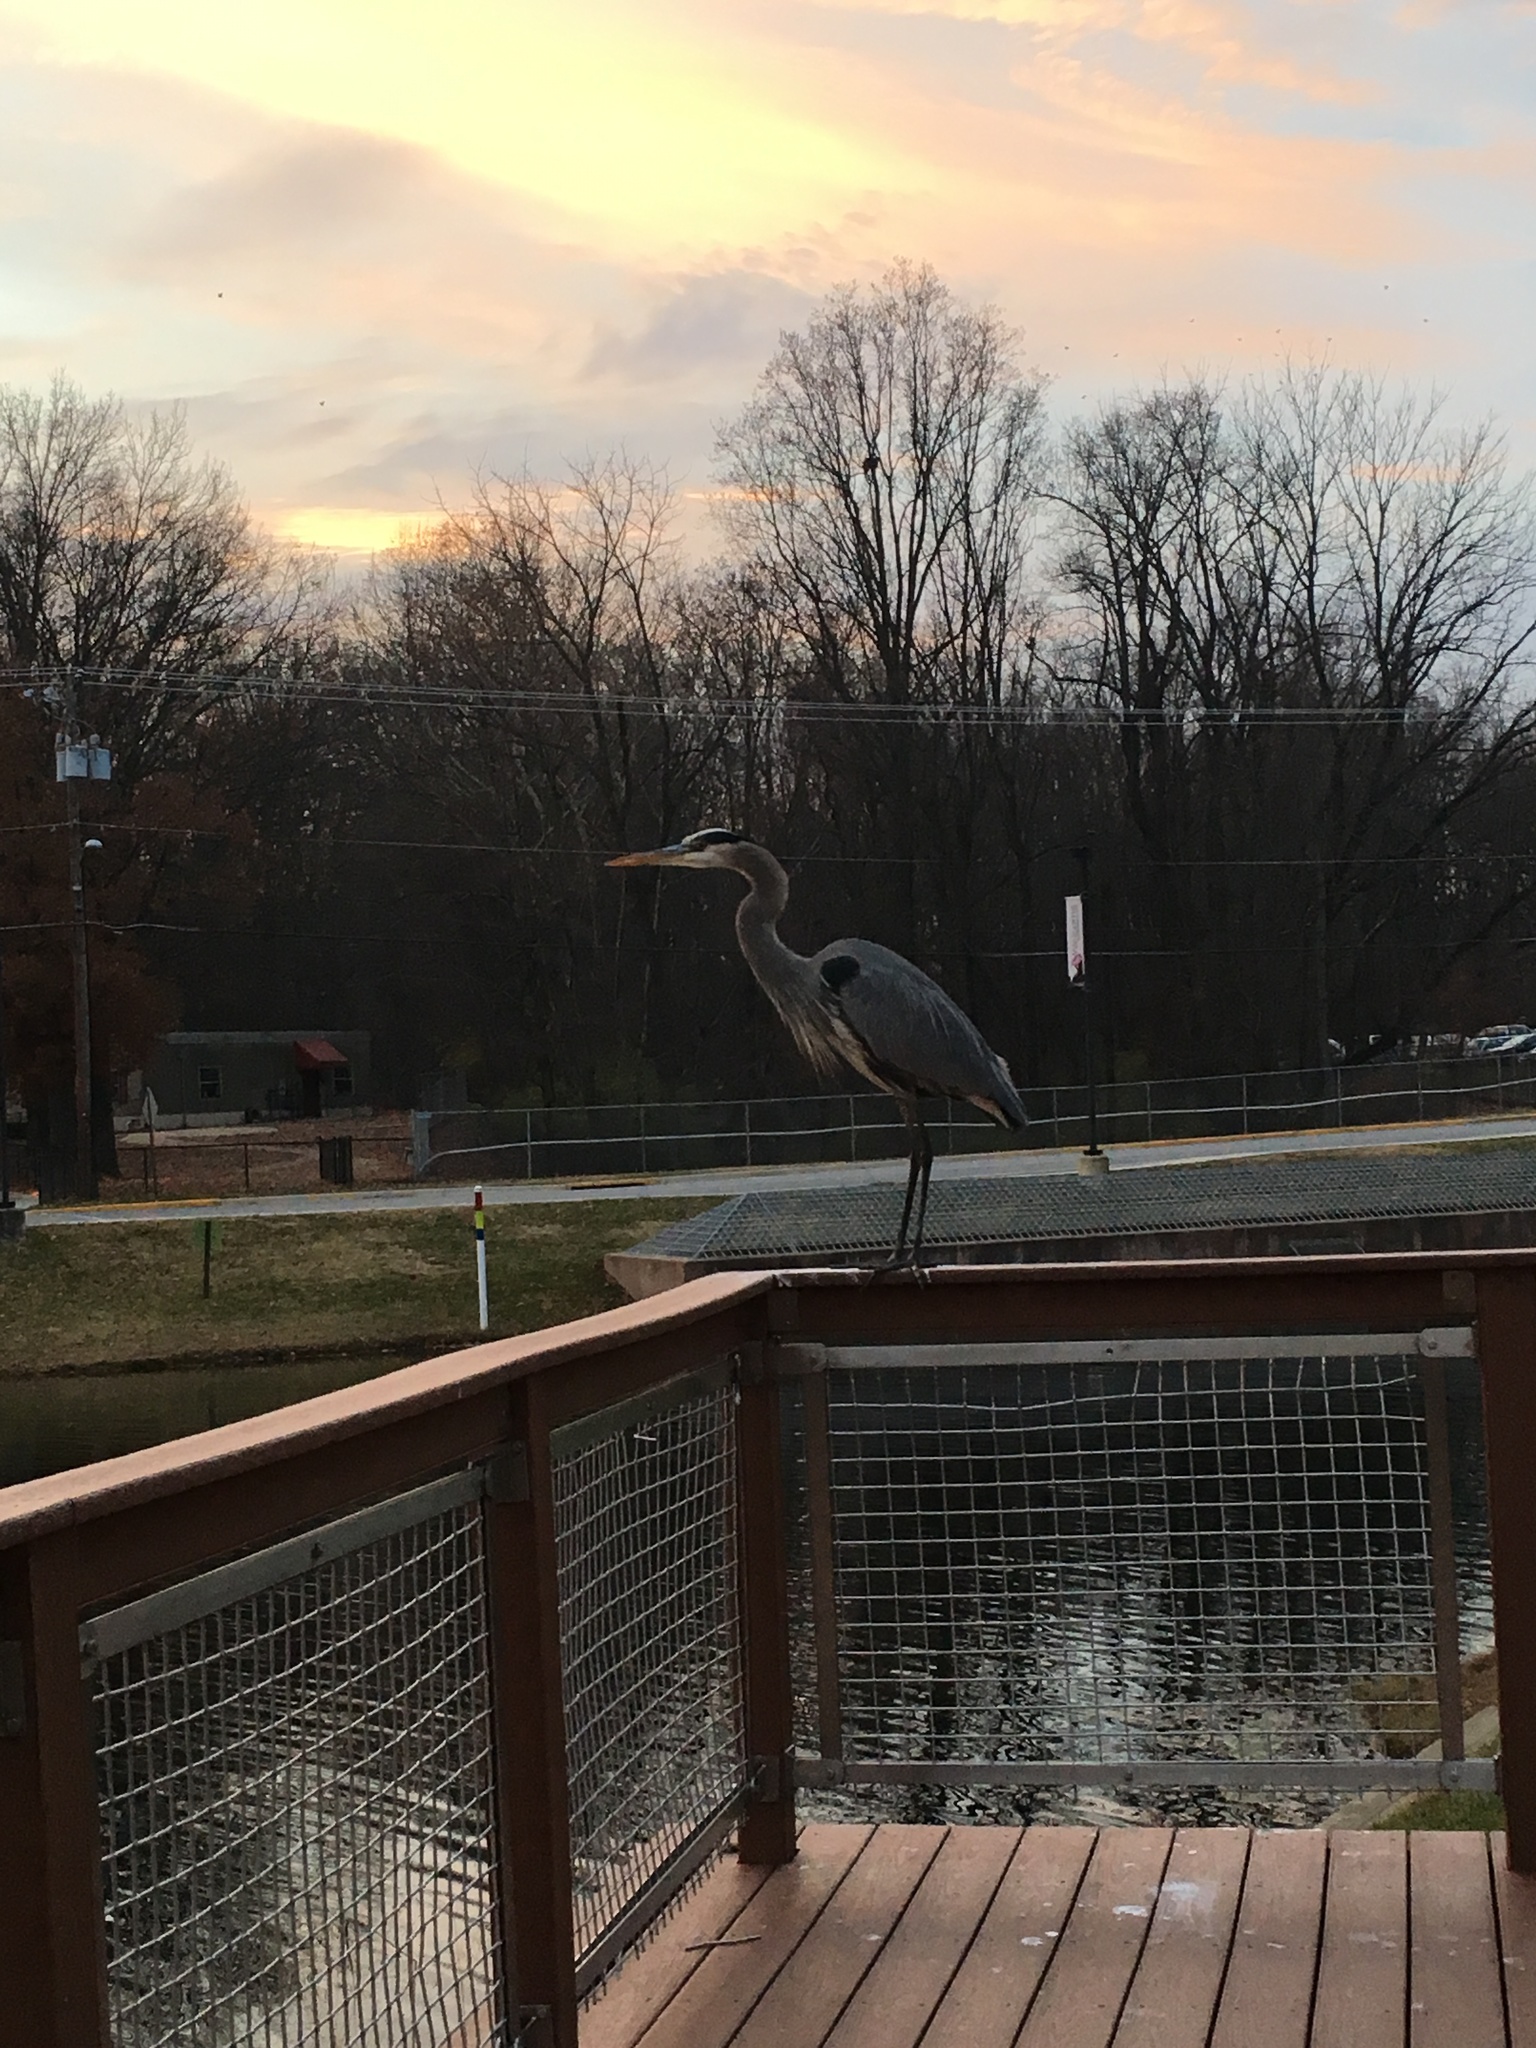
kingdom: Animalia
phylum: Chordata
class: Aves
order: Pelecaniformes
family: Ardeidae
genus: Ardea
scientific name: Ardea herodias
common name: Great blue heron
